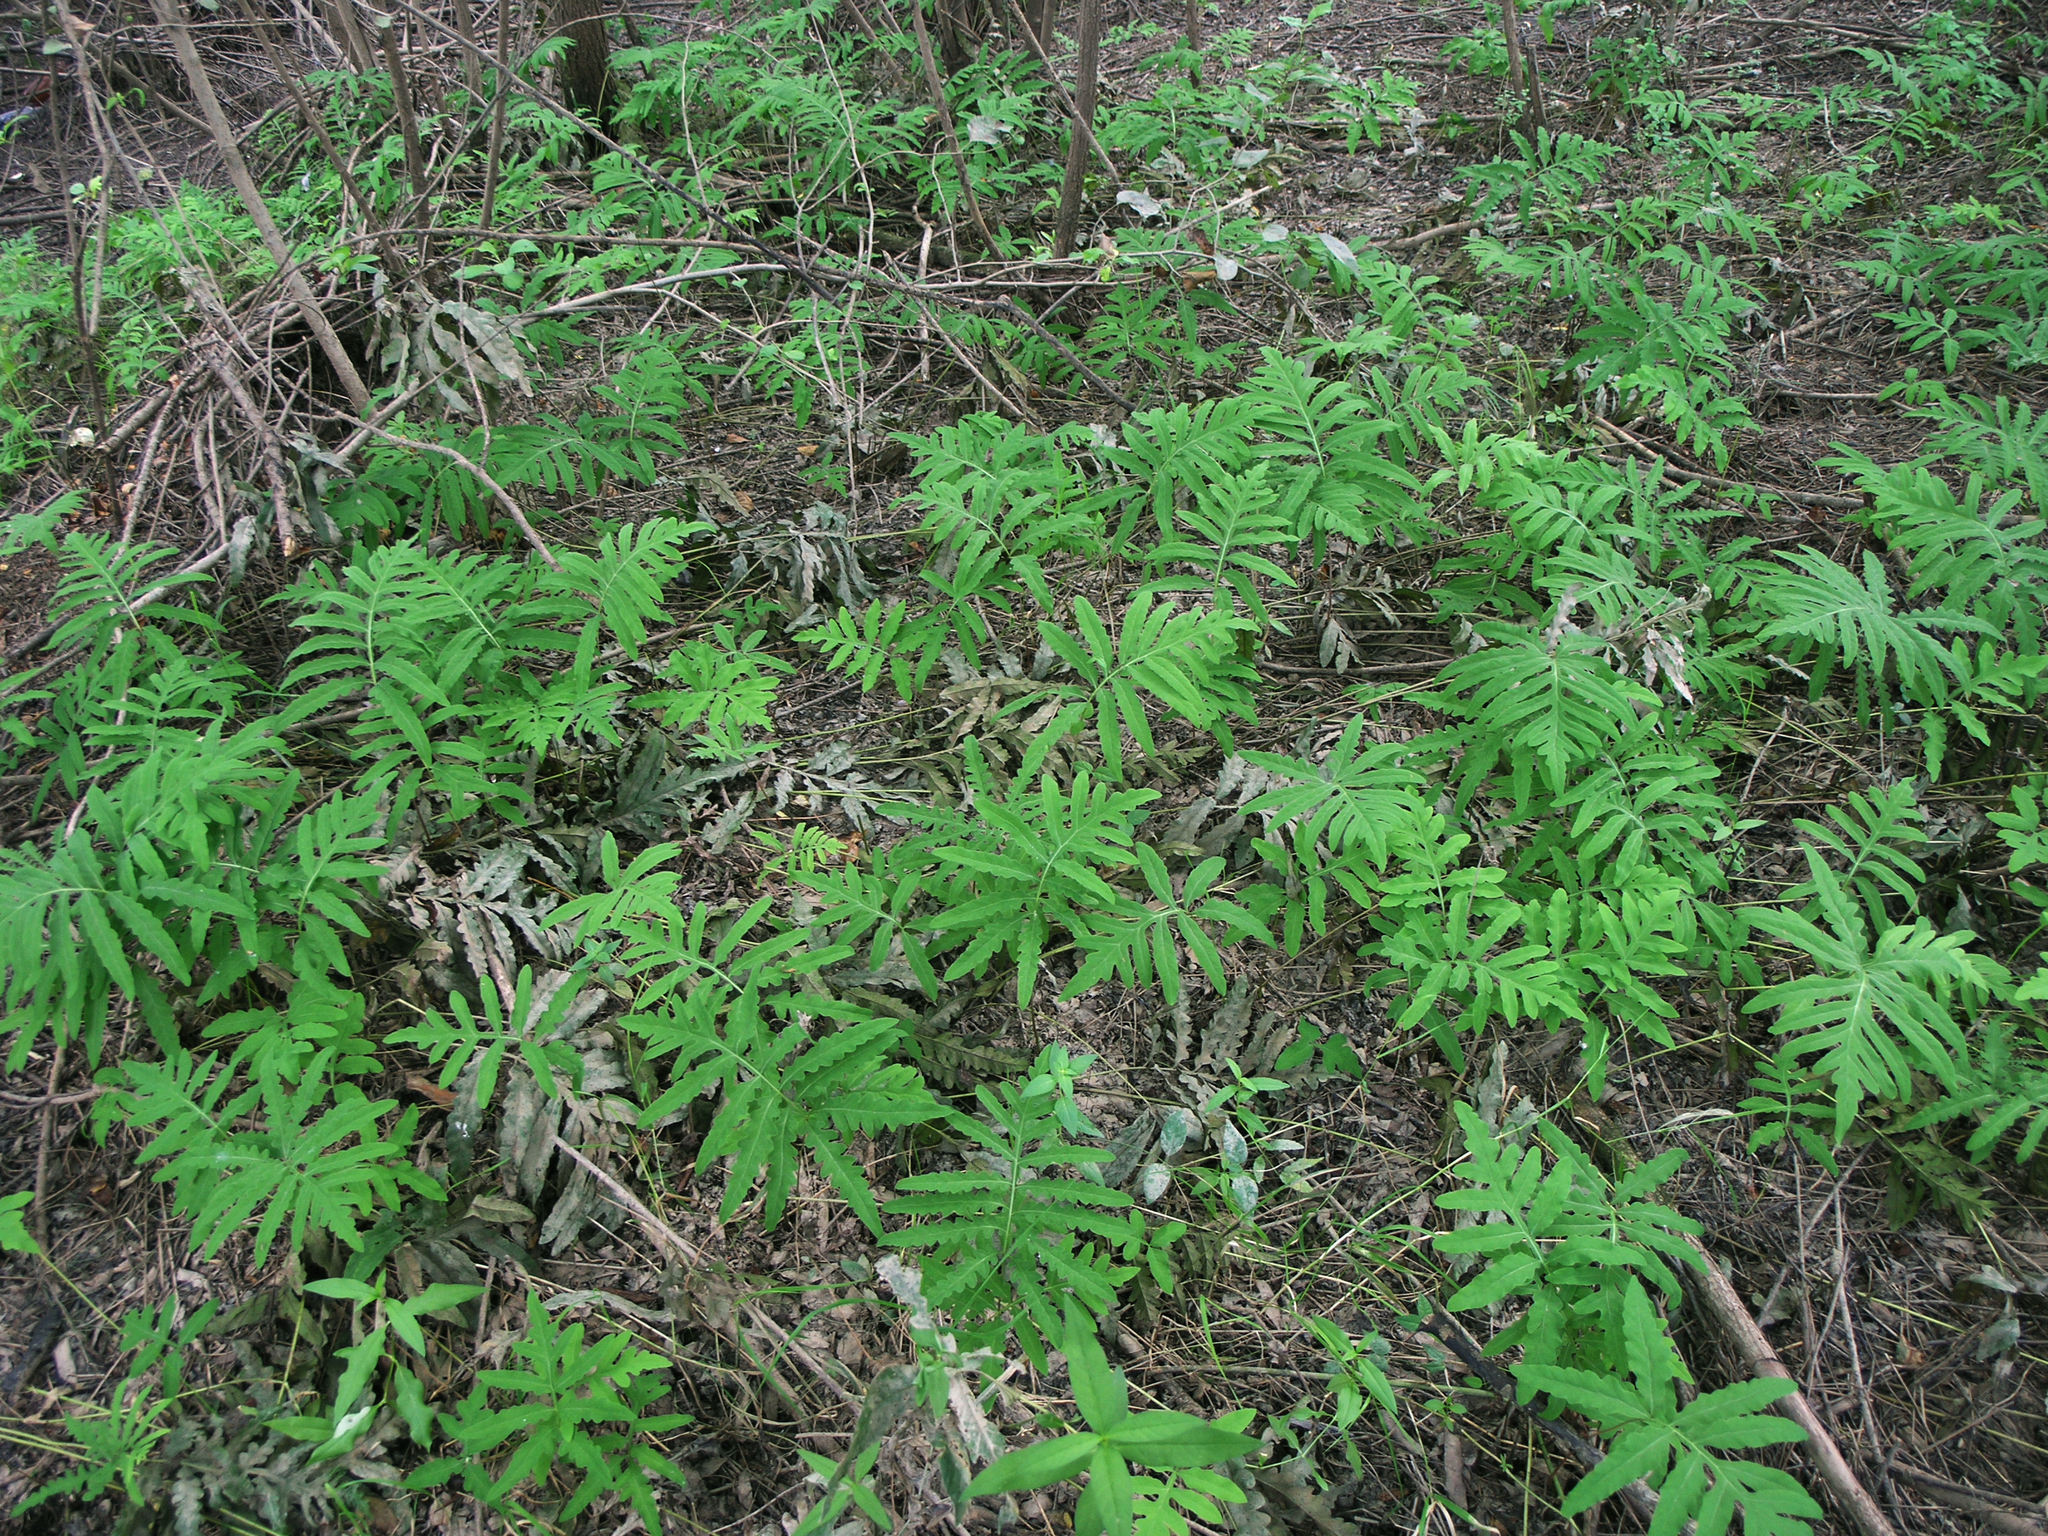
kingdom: Plantae
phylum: Tracheophyta
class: Polypodiopsida
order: Polypodiales
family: Onocleaceae
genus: Onoclea
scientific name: Onoclea sensibilis
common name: Sensitive fern
